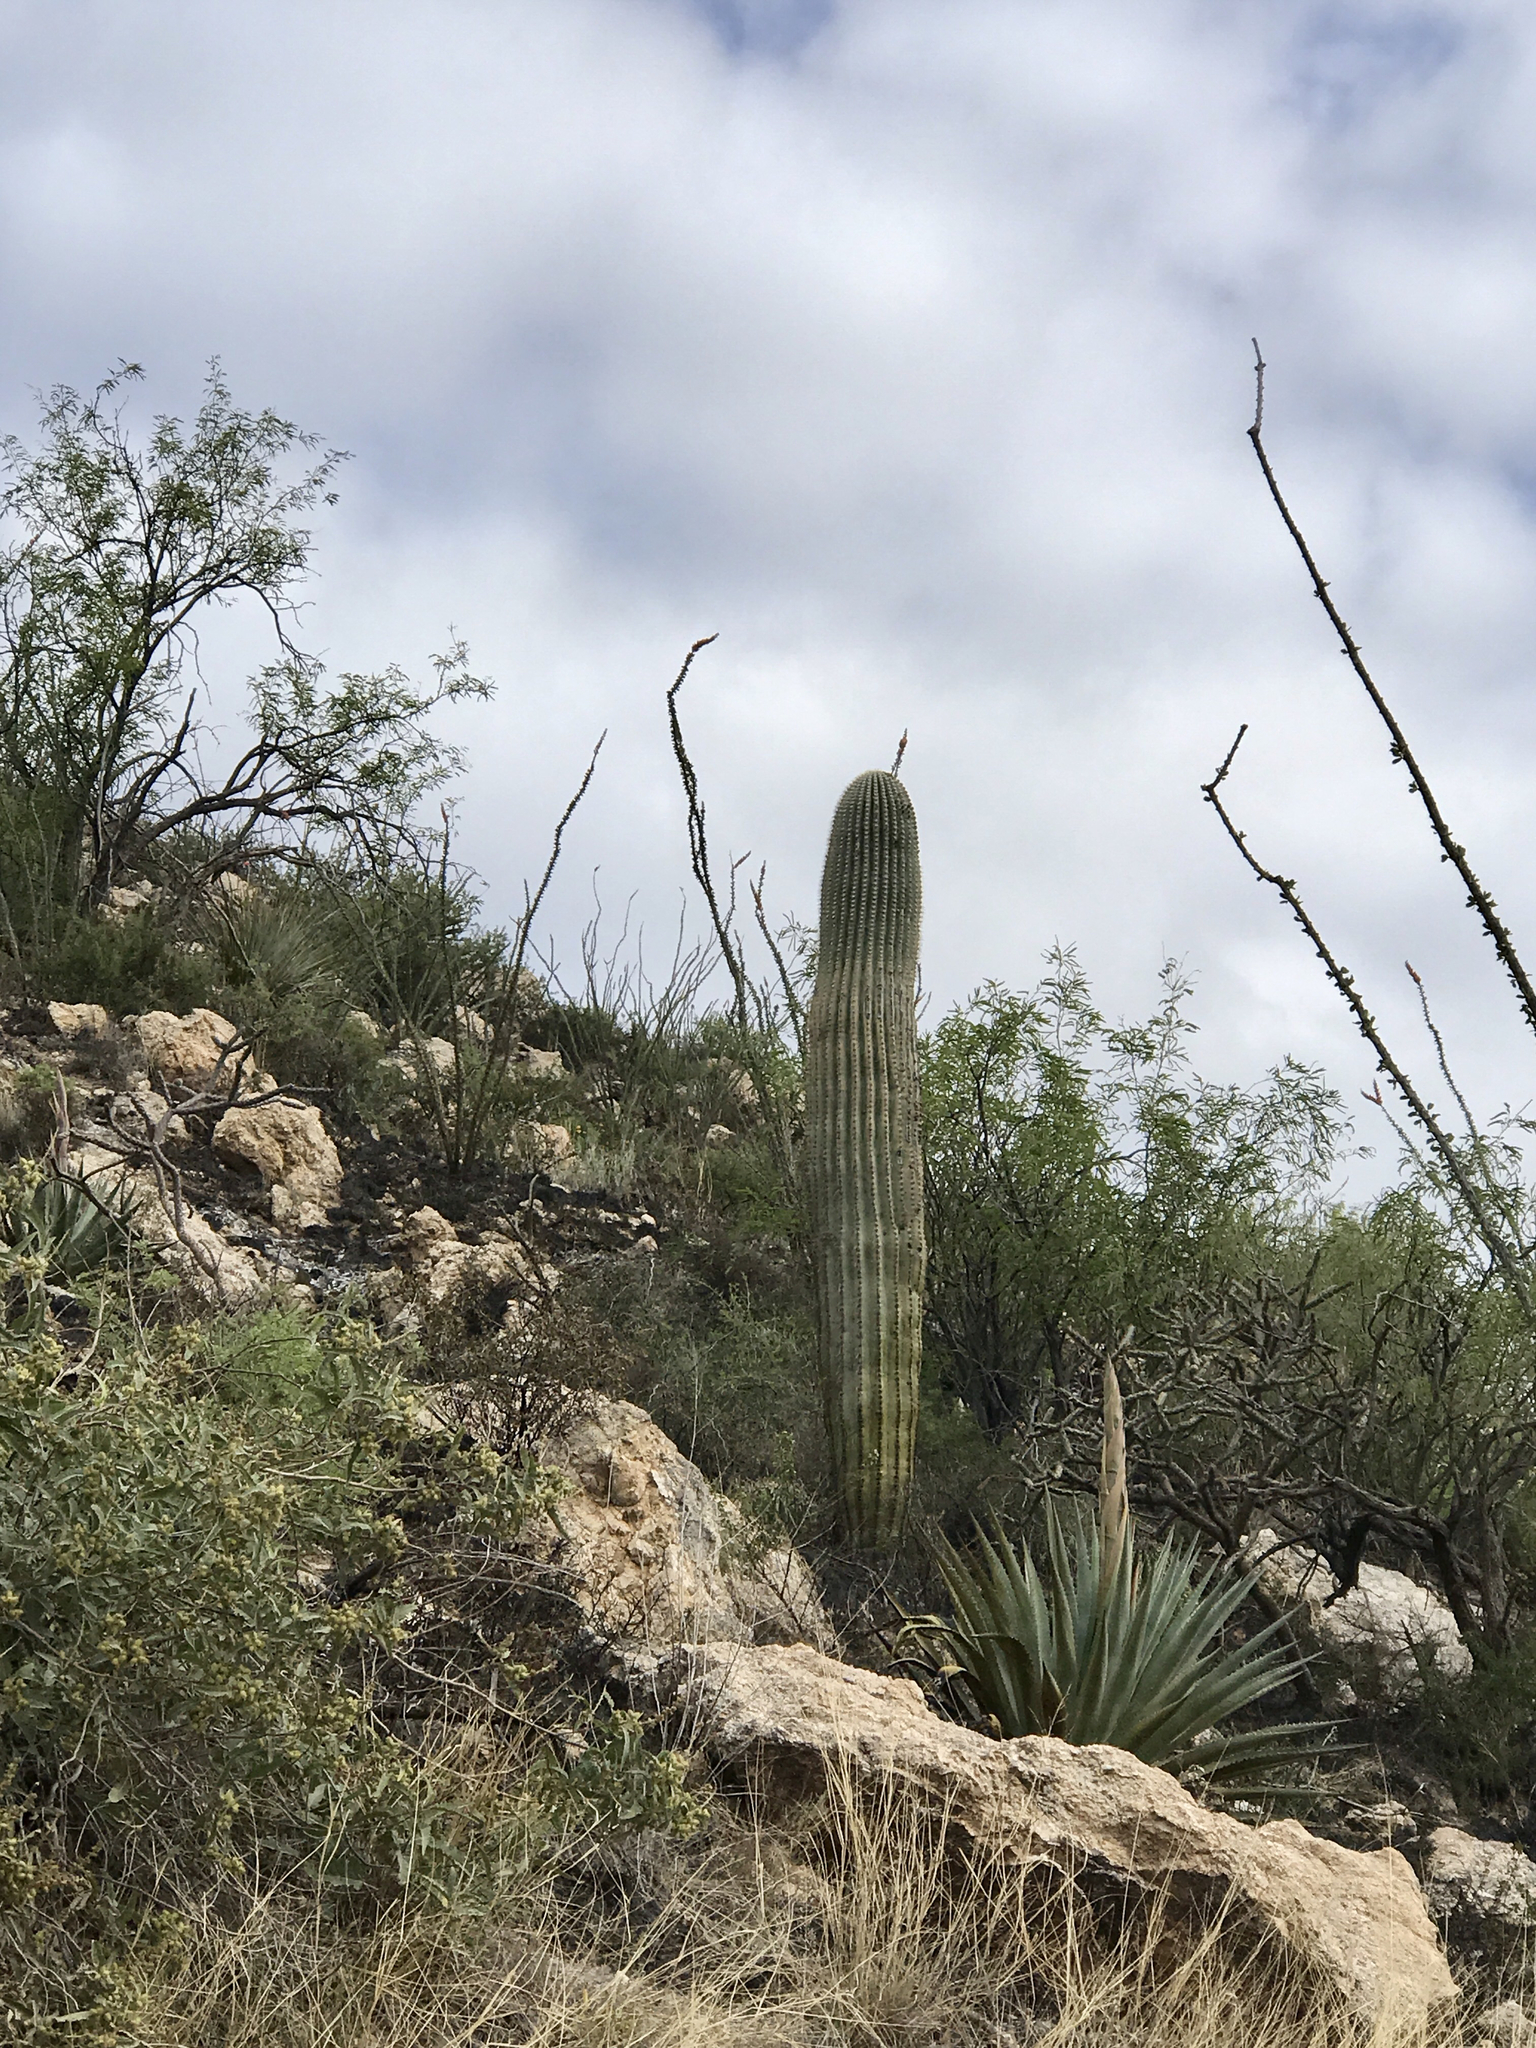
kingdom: Plantae
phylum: Tracheophyta
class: Magnoliopsida
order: Caryophyllales
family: Cactaceae
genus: Carnegiea
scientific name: Carnegiea gigantea
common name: Saguaro
